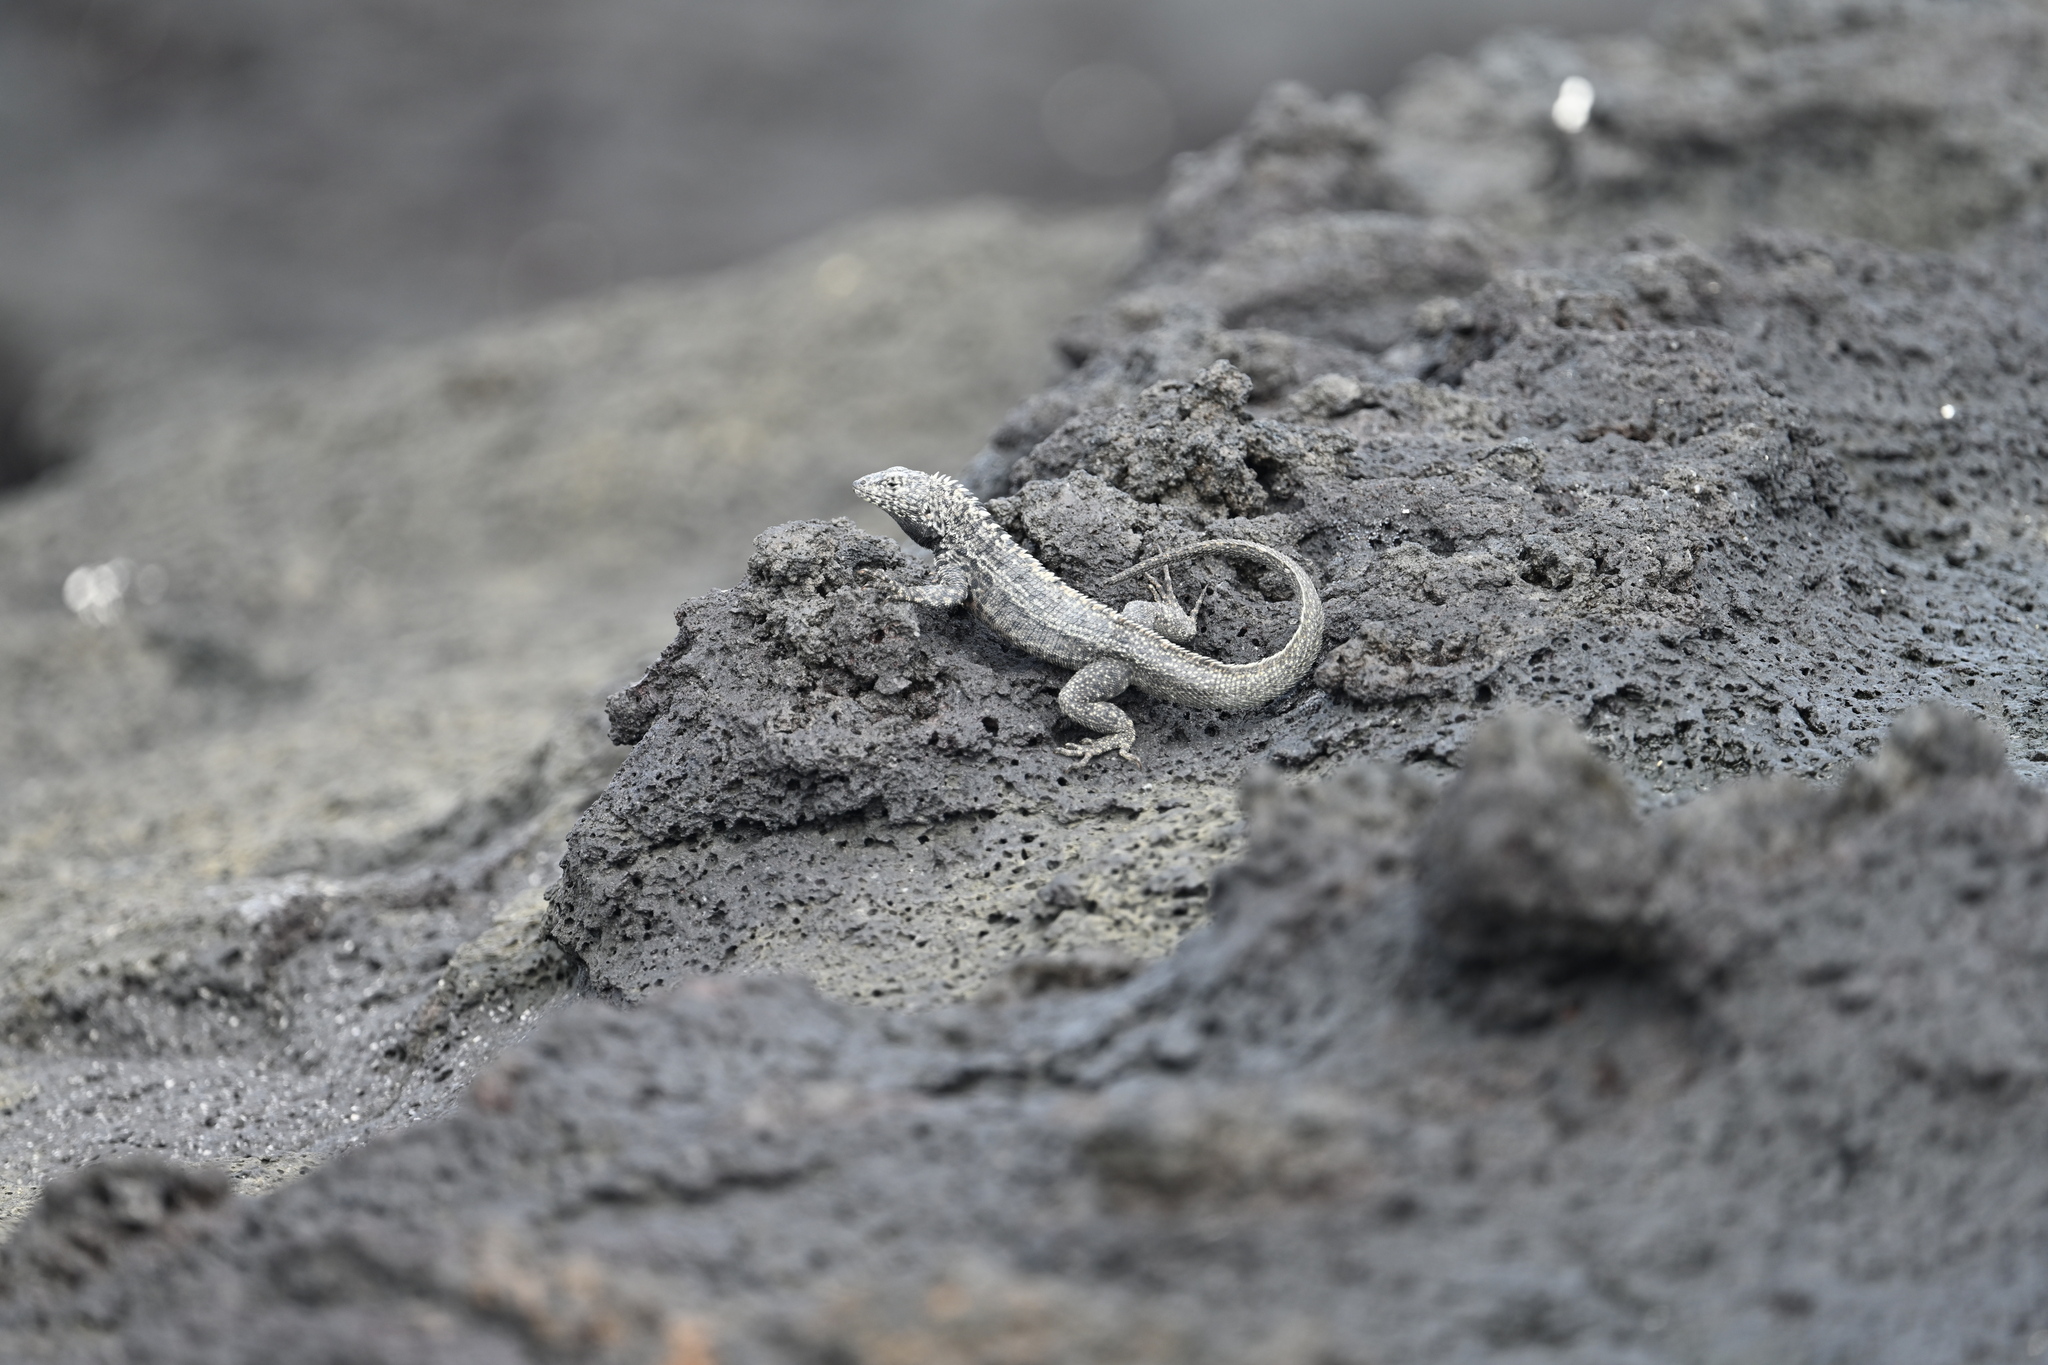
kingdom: Animalia
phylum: Chordata
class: Squamata
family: Tropiduridae
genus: Microlophus
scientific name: Microlophus albemarlensis
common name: Galapagos lava lizard
